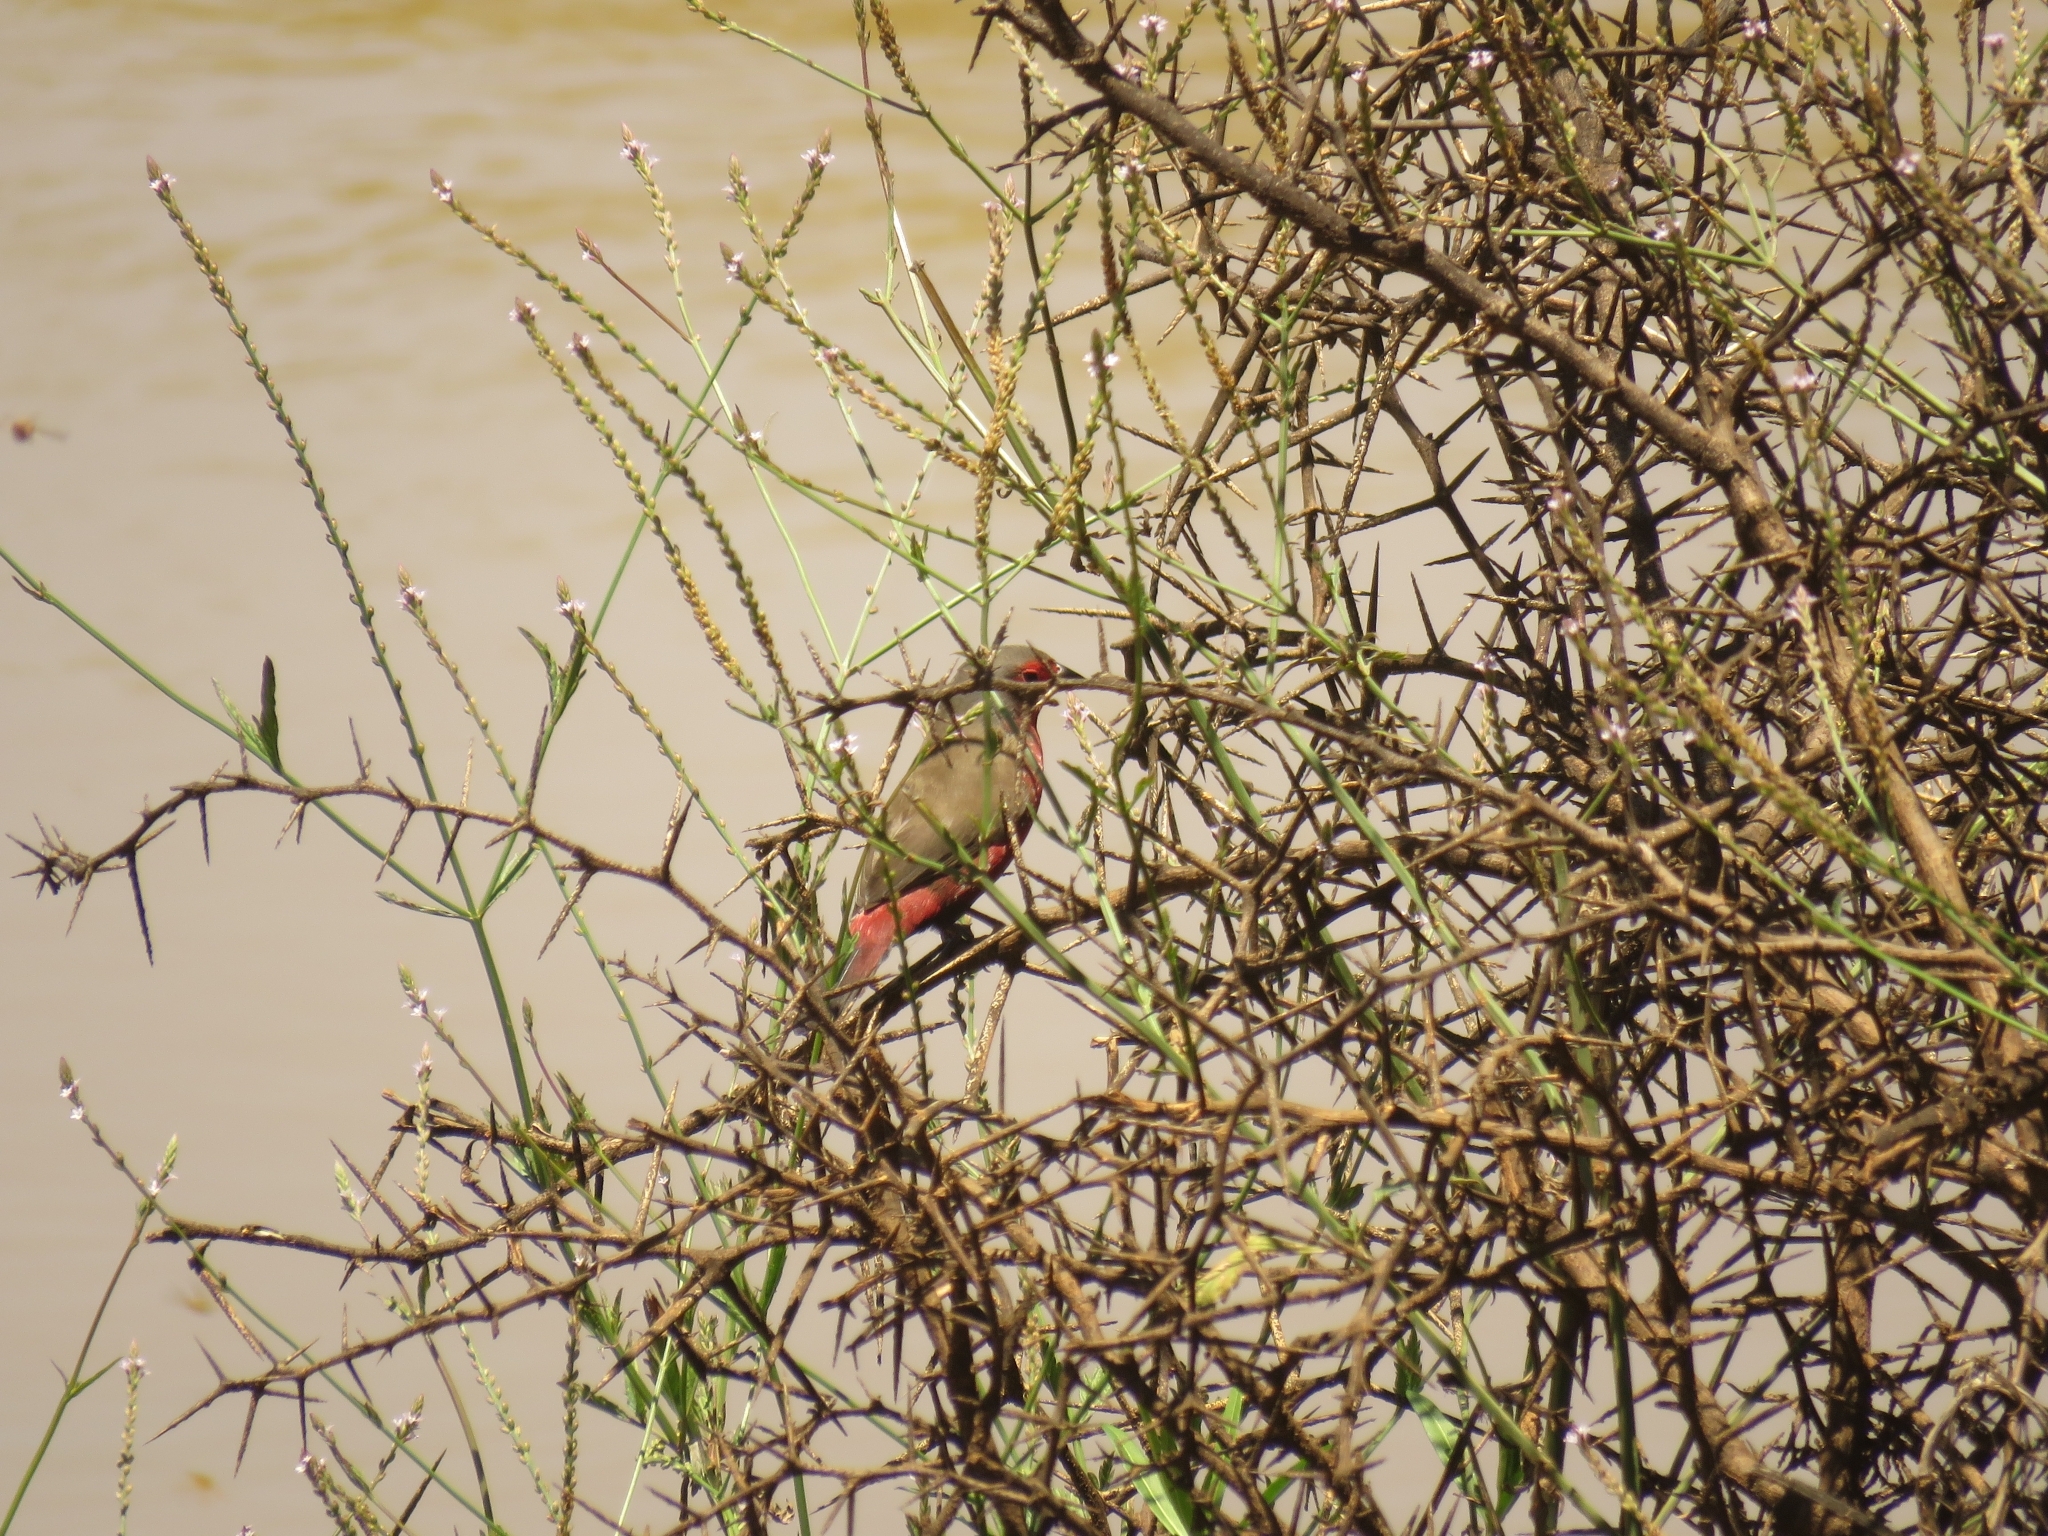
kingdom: Animalia
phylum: Chordata
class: Aves
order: Passeriformes
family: Estrildidae
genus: Lagonosticta
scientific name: Lagonosticta rubricata
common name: African firefinch
